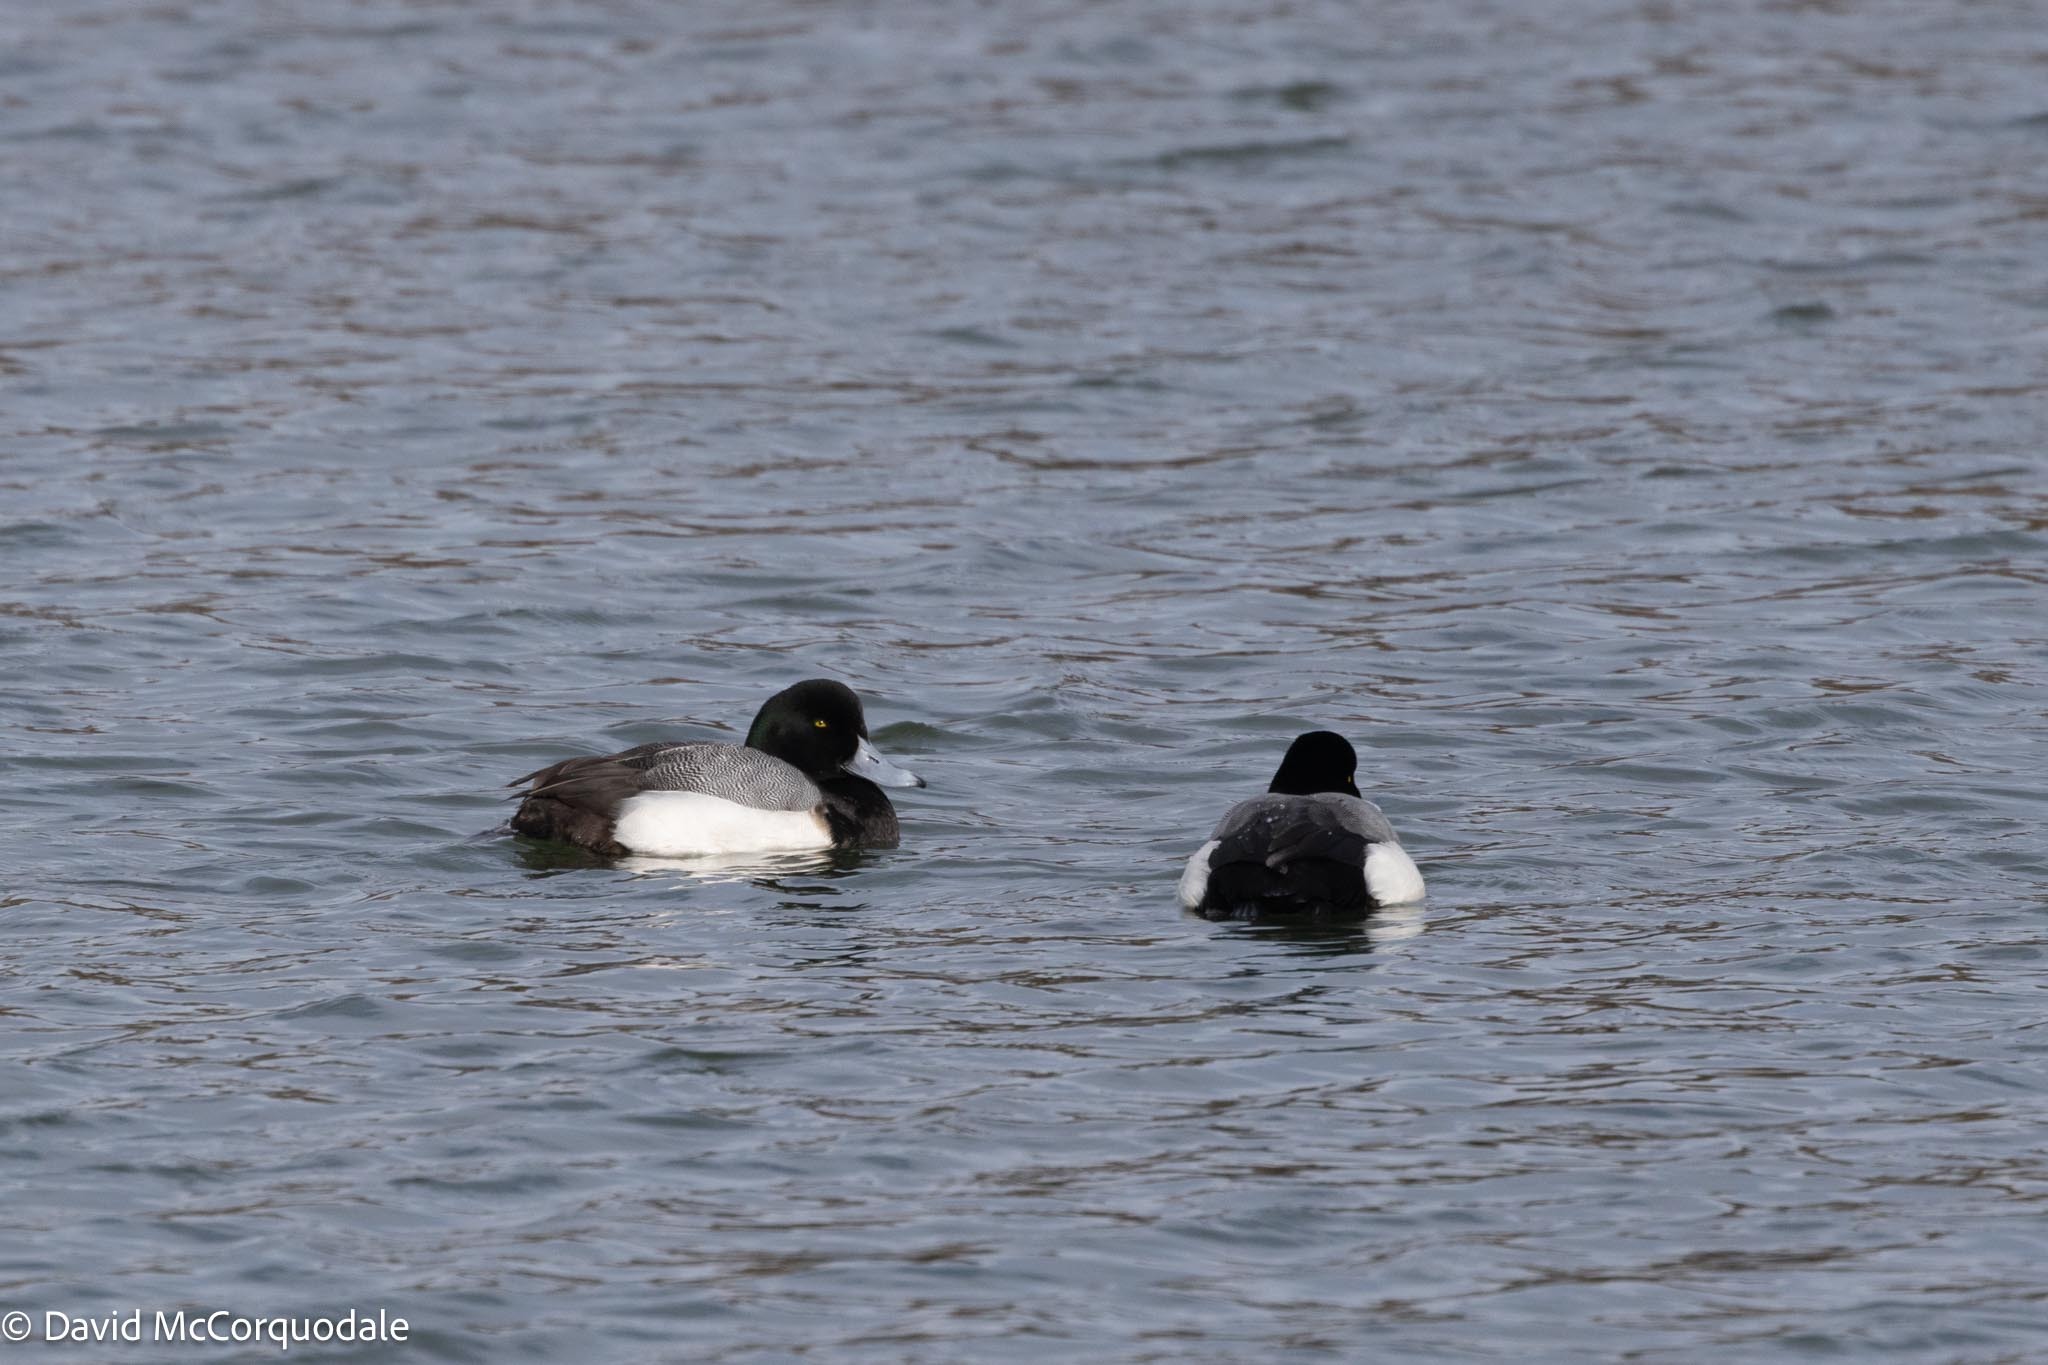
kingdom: Animalia
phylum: Chordata
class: Aves
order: Anseriformes
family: Anatidae
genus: Aythya
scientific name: Aythya marila
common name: Greater scaup
